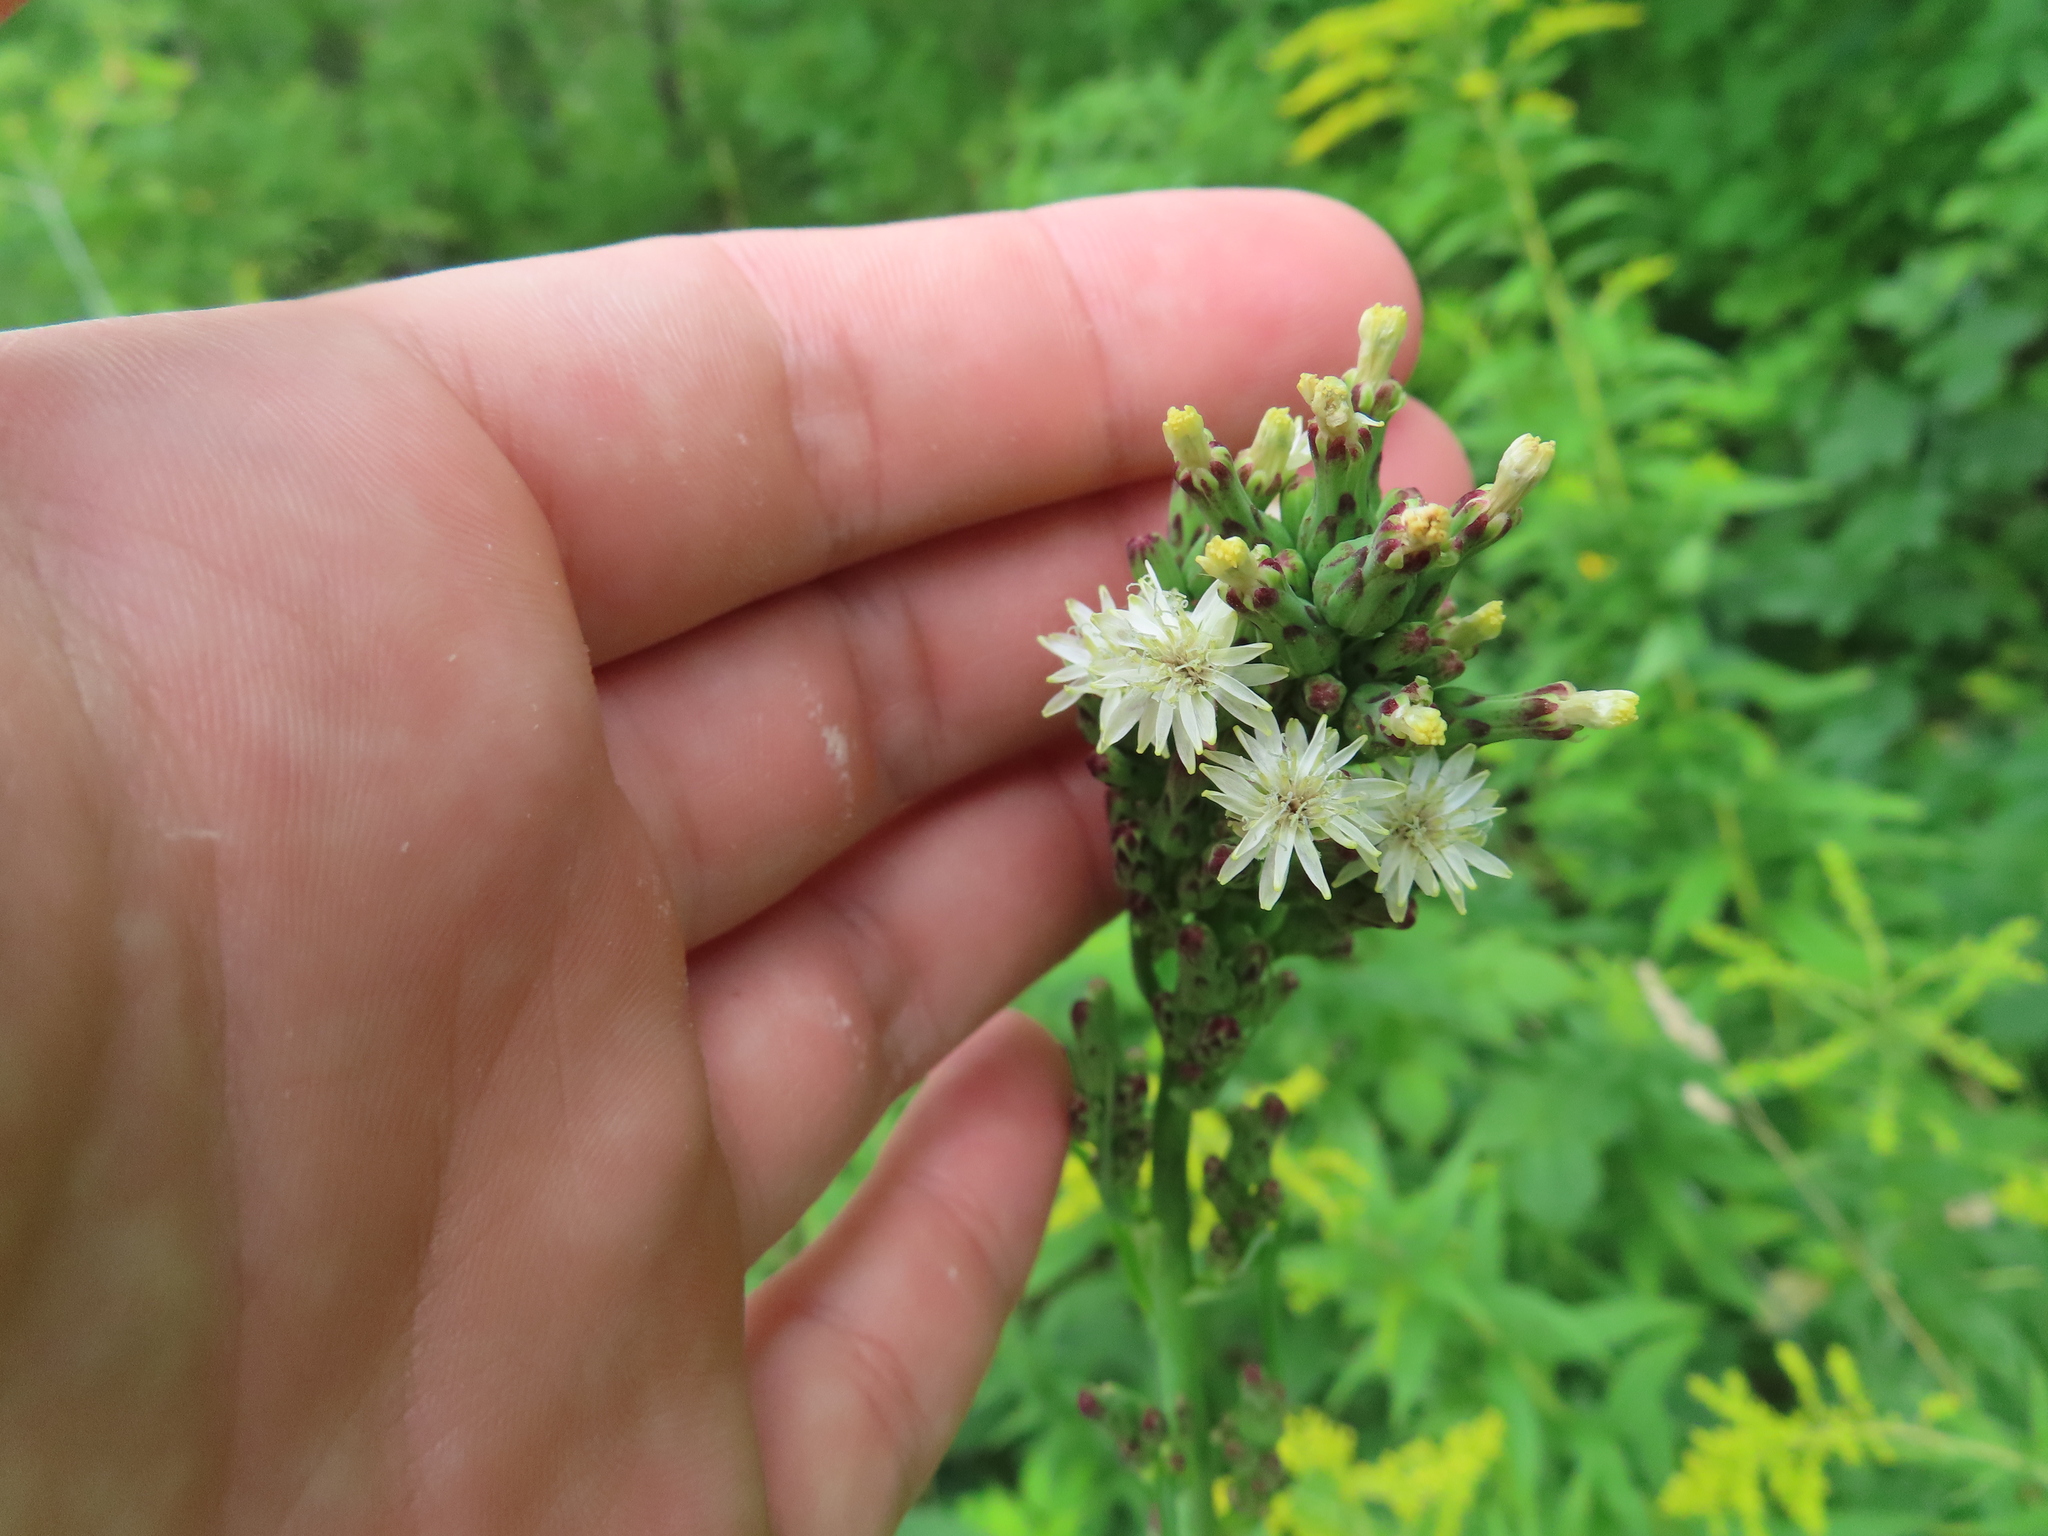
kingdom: Plantae
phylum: Tracheophyta
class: Magnoliopsida
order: Asterales
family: Asteraceae
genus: Lactuca
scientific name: Lactuca biennis
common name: Blue wood lettuce
